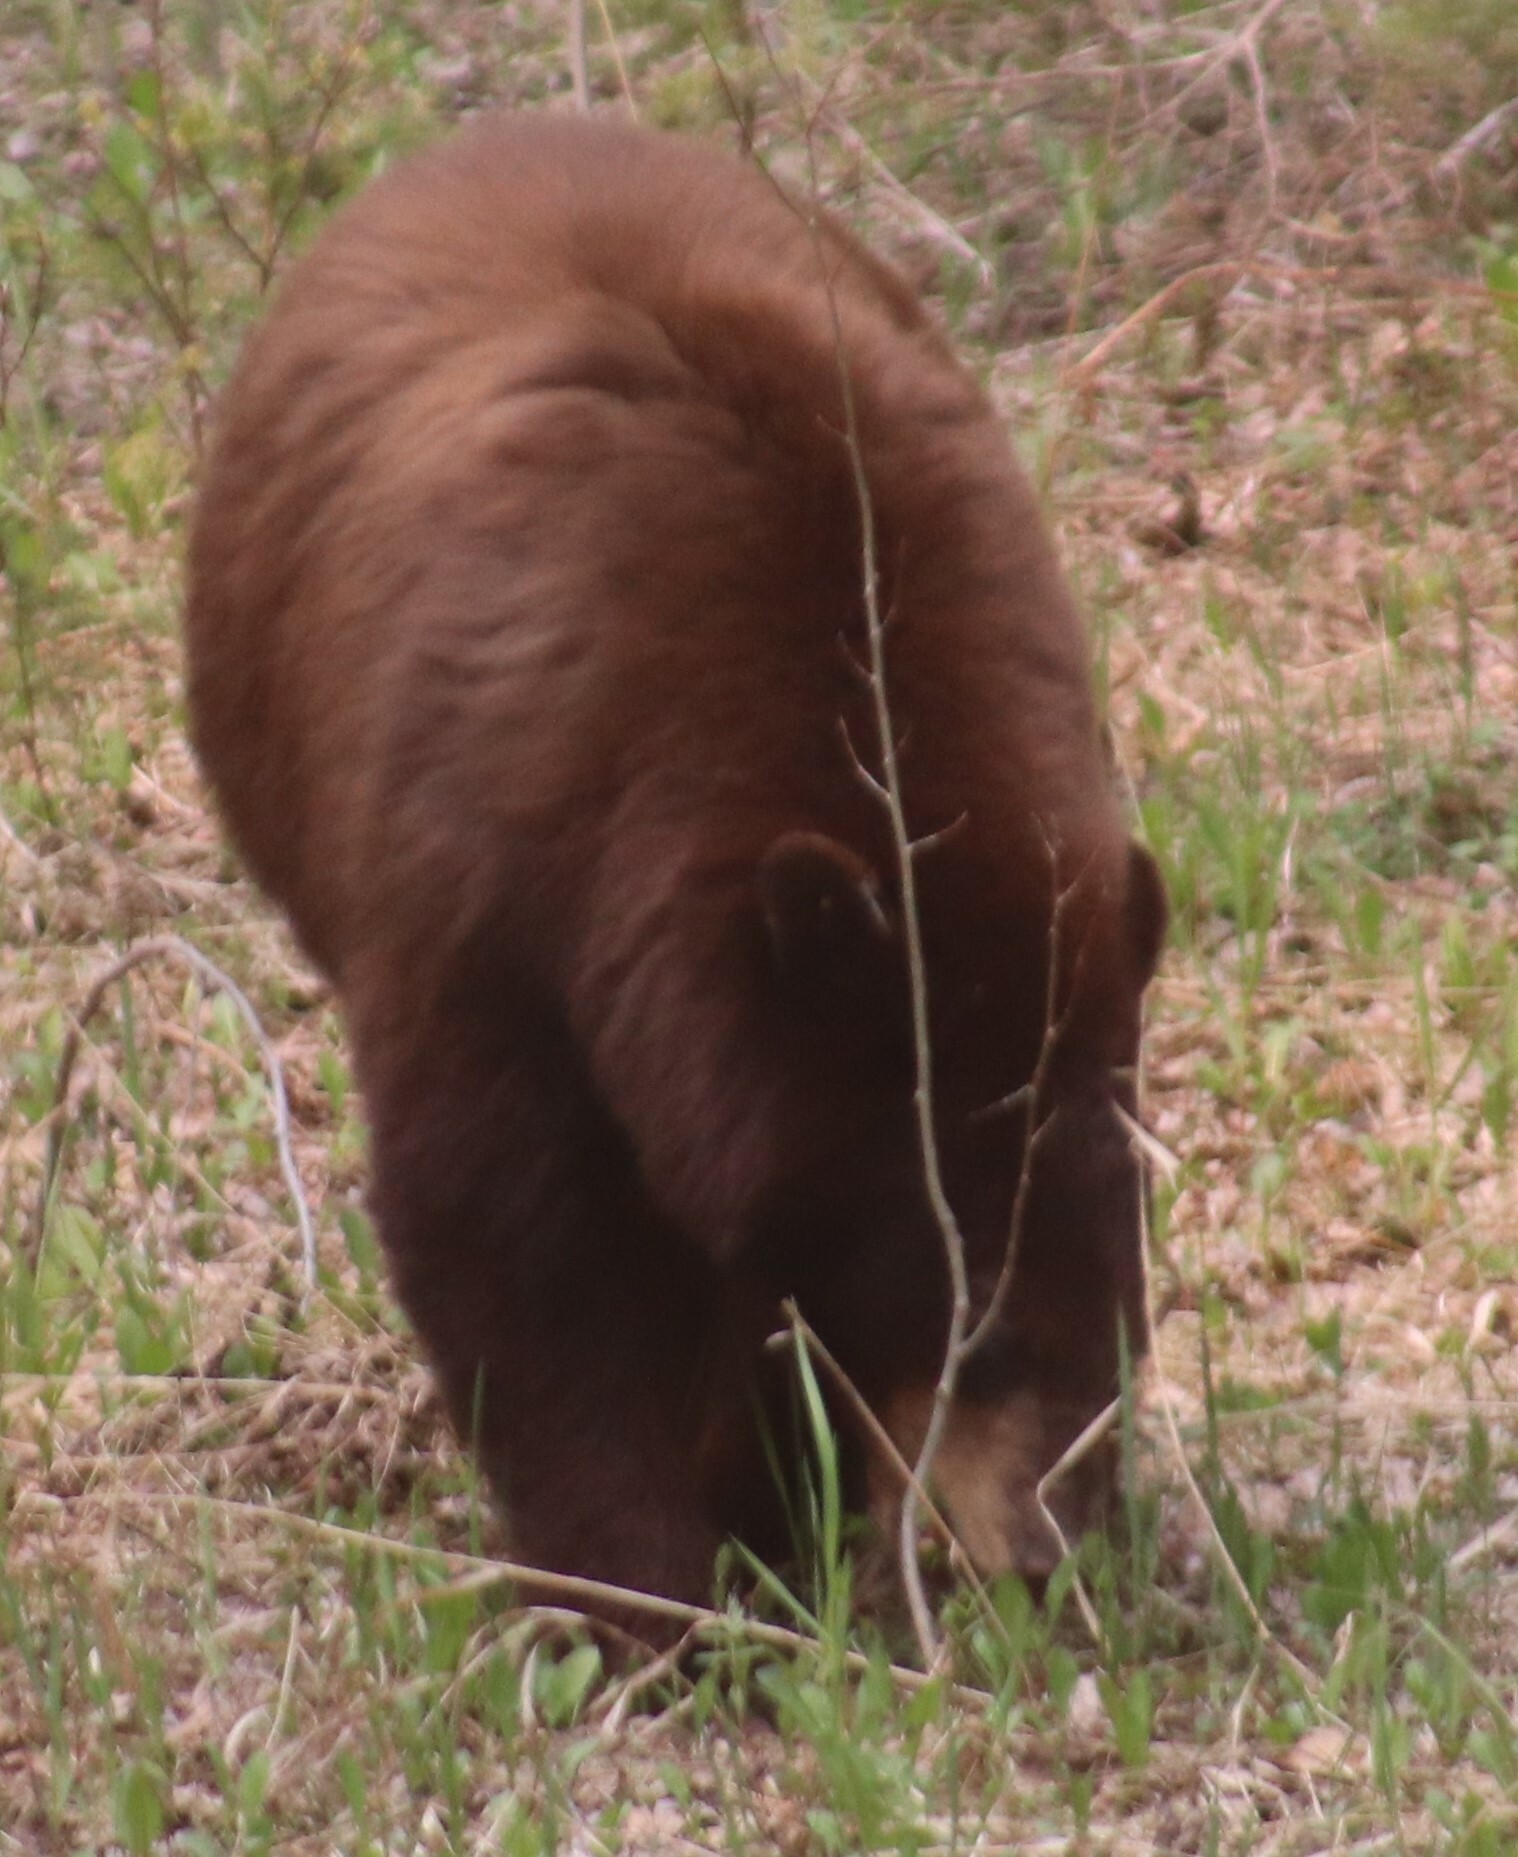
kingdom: Animalia
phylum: Chordata
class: Mammalia
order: Carnivora
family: Ursidae
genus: Ursus
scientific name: Ursus americanus
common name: American black bear
